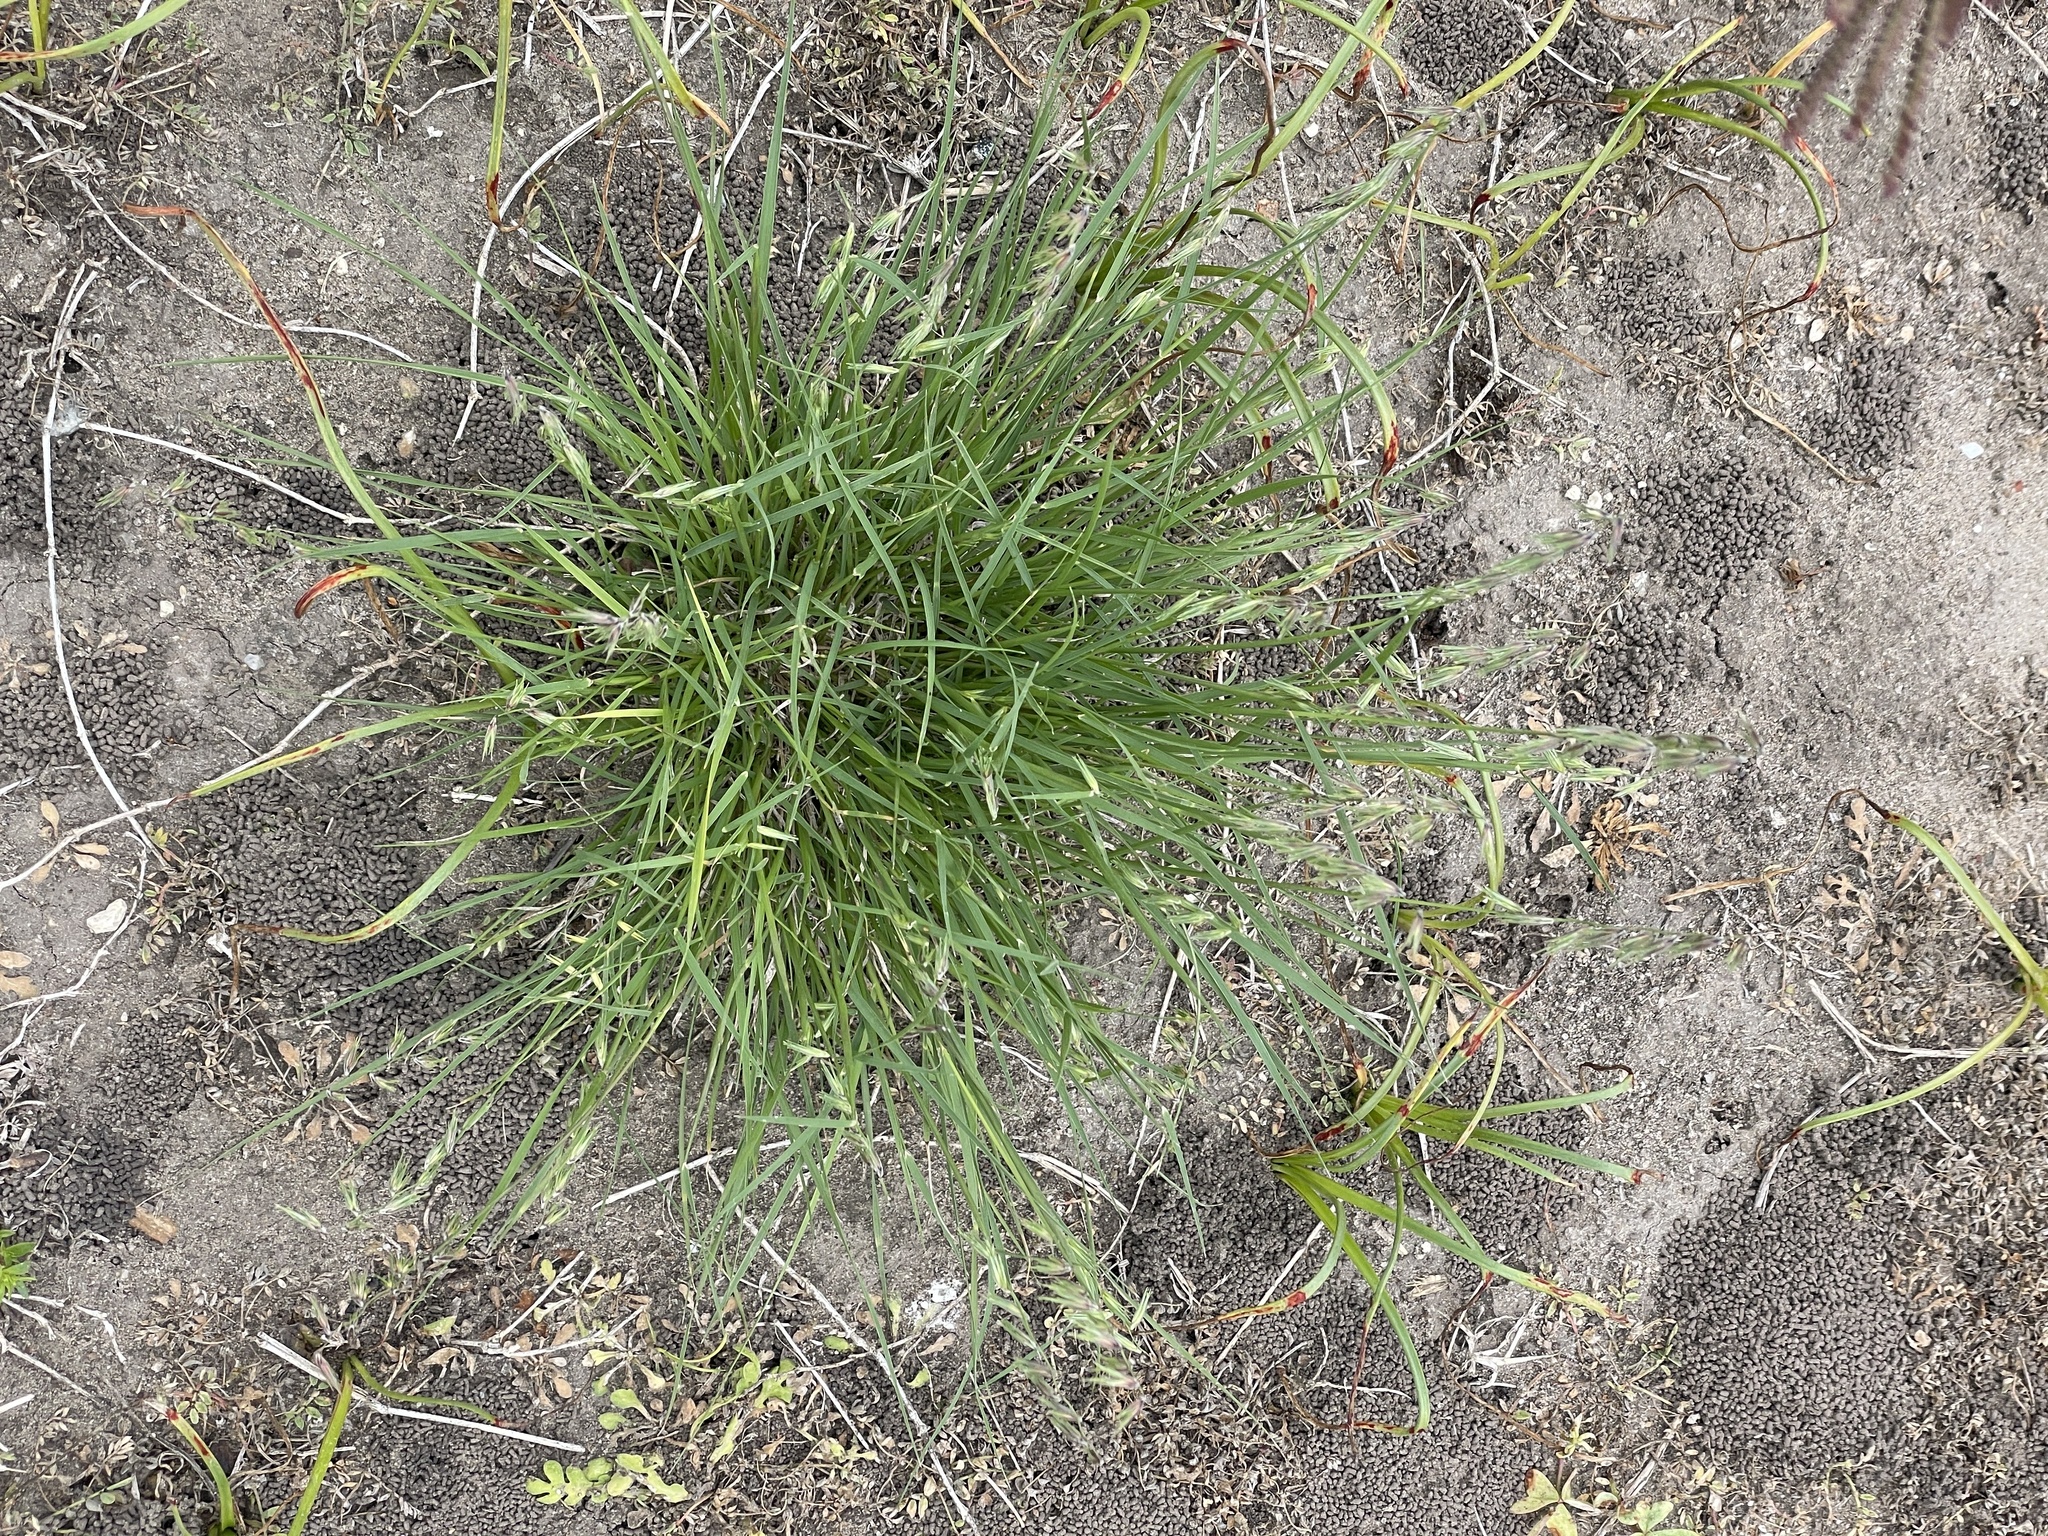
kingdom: Plantae
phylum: Tracheophyta
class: Liliopsida
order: Poales
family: Poaceae
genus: Bouteloua
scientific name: Bouteloua rigidiseta
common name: Texas grama
